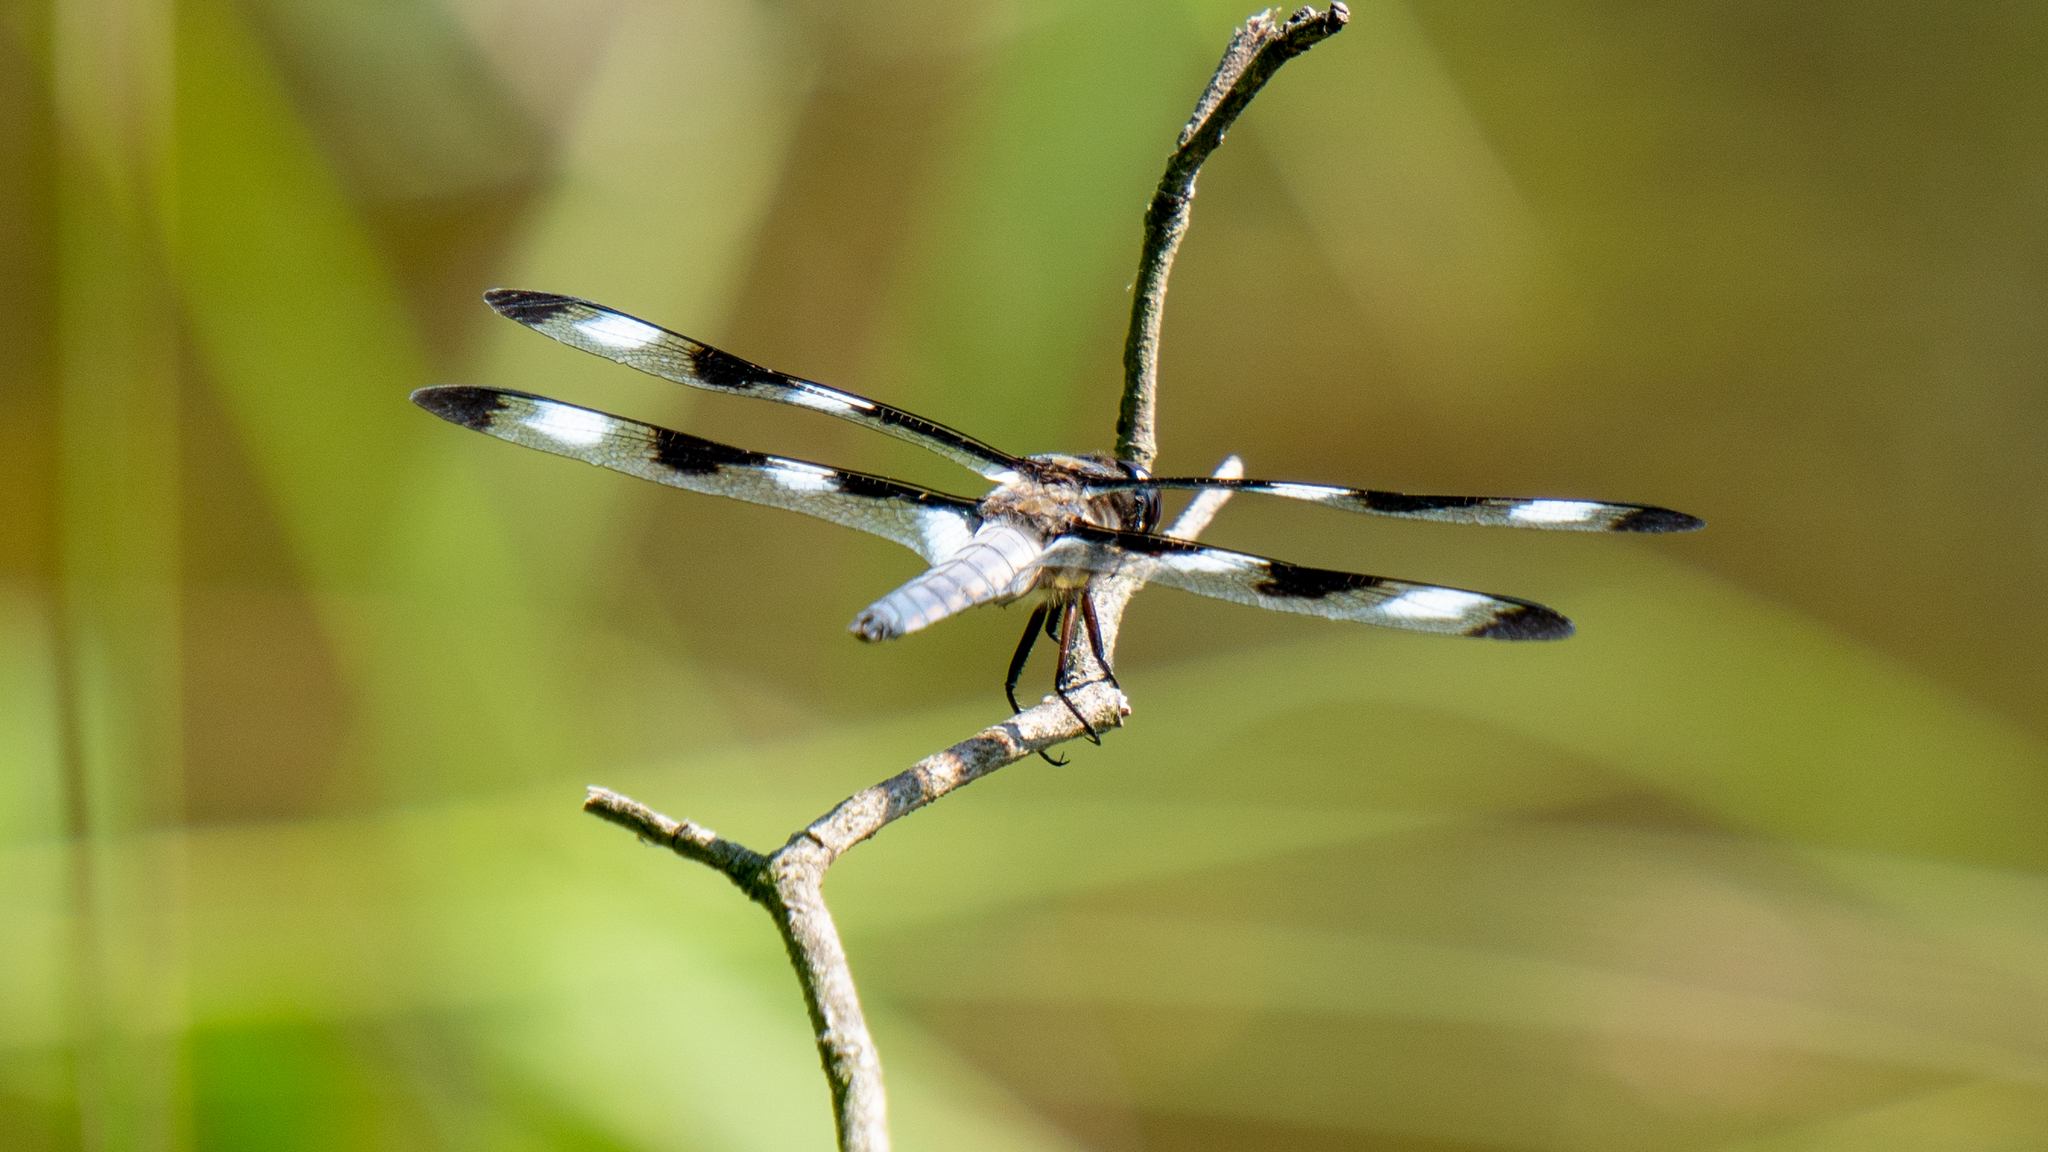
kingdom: Animalia
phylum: Arthropoda
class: Insecta
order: Odonata
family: Libellulidae
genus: Libellula
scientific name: Libellula pulchella
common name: Twelve-spotted skimmer
